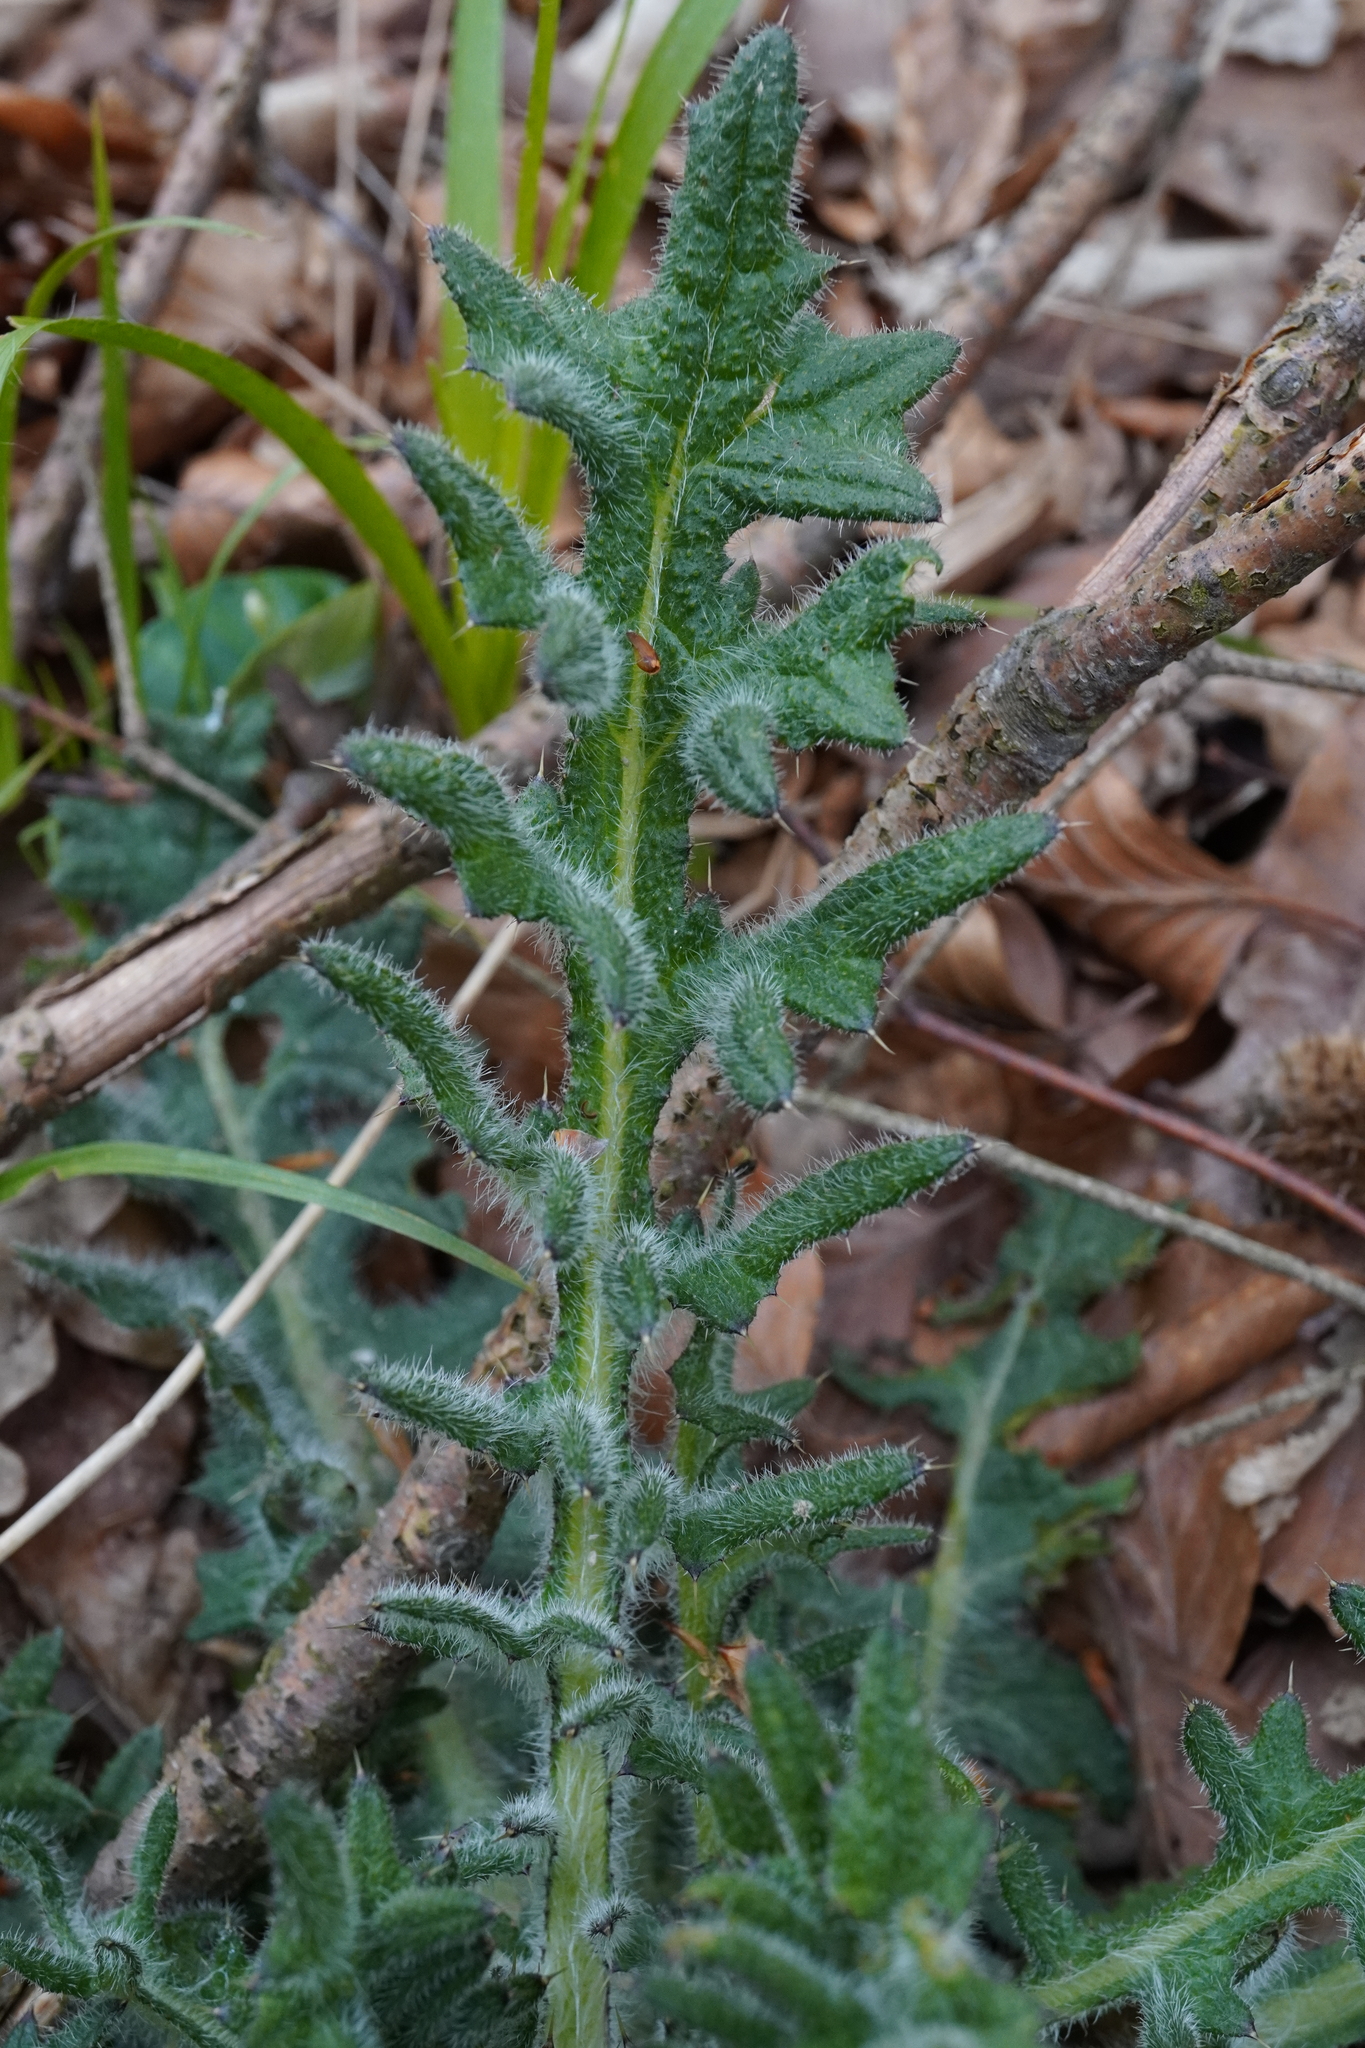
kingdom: Plantae
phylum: Tracheophyta
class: Magnoliopsida
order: Asterales
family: Asteraceae
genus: Cirsium
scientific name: Cirsium vulgare
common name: Bull thistle
